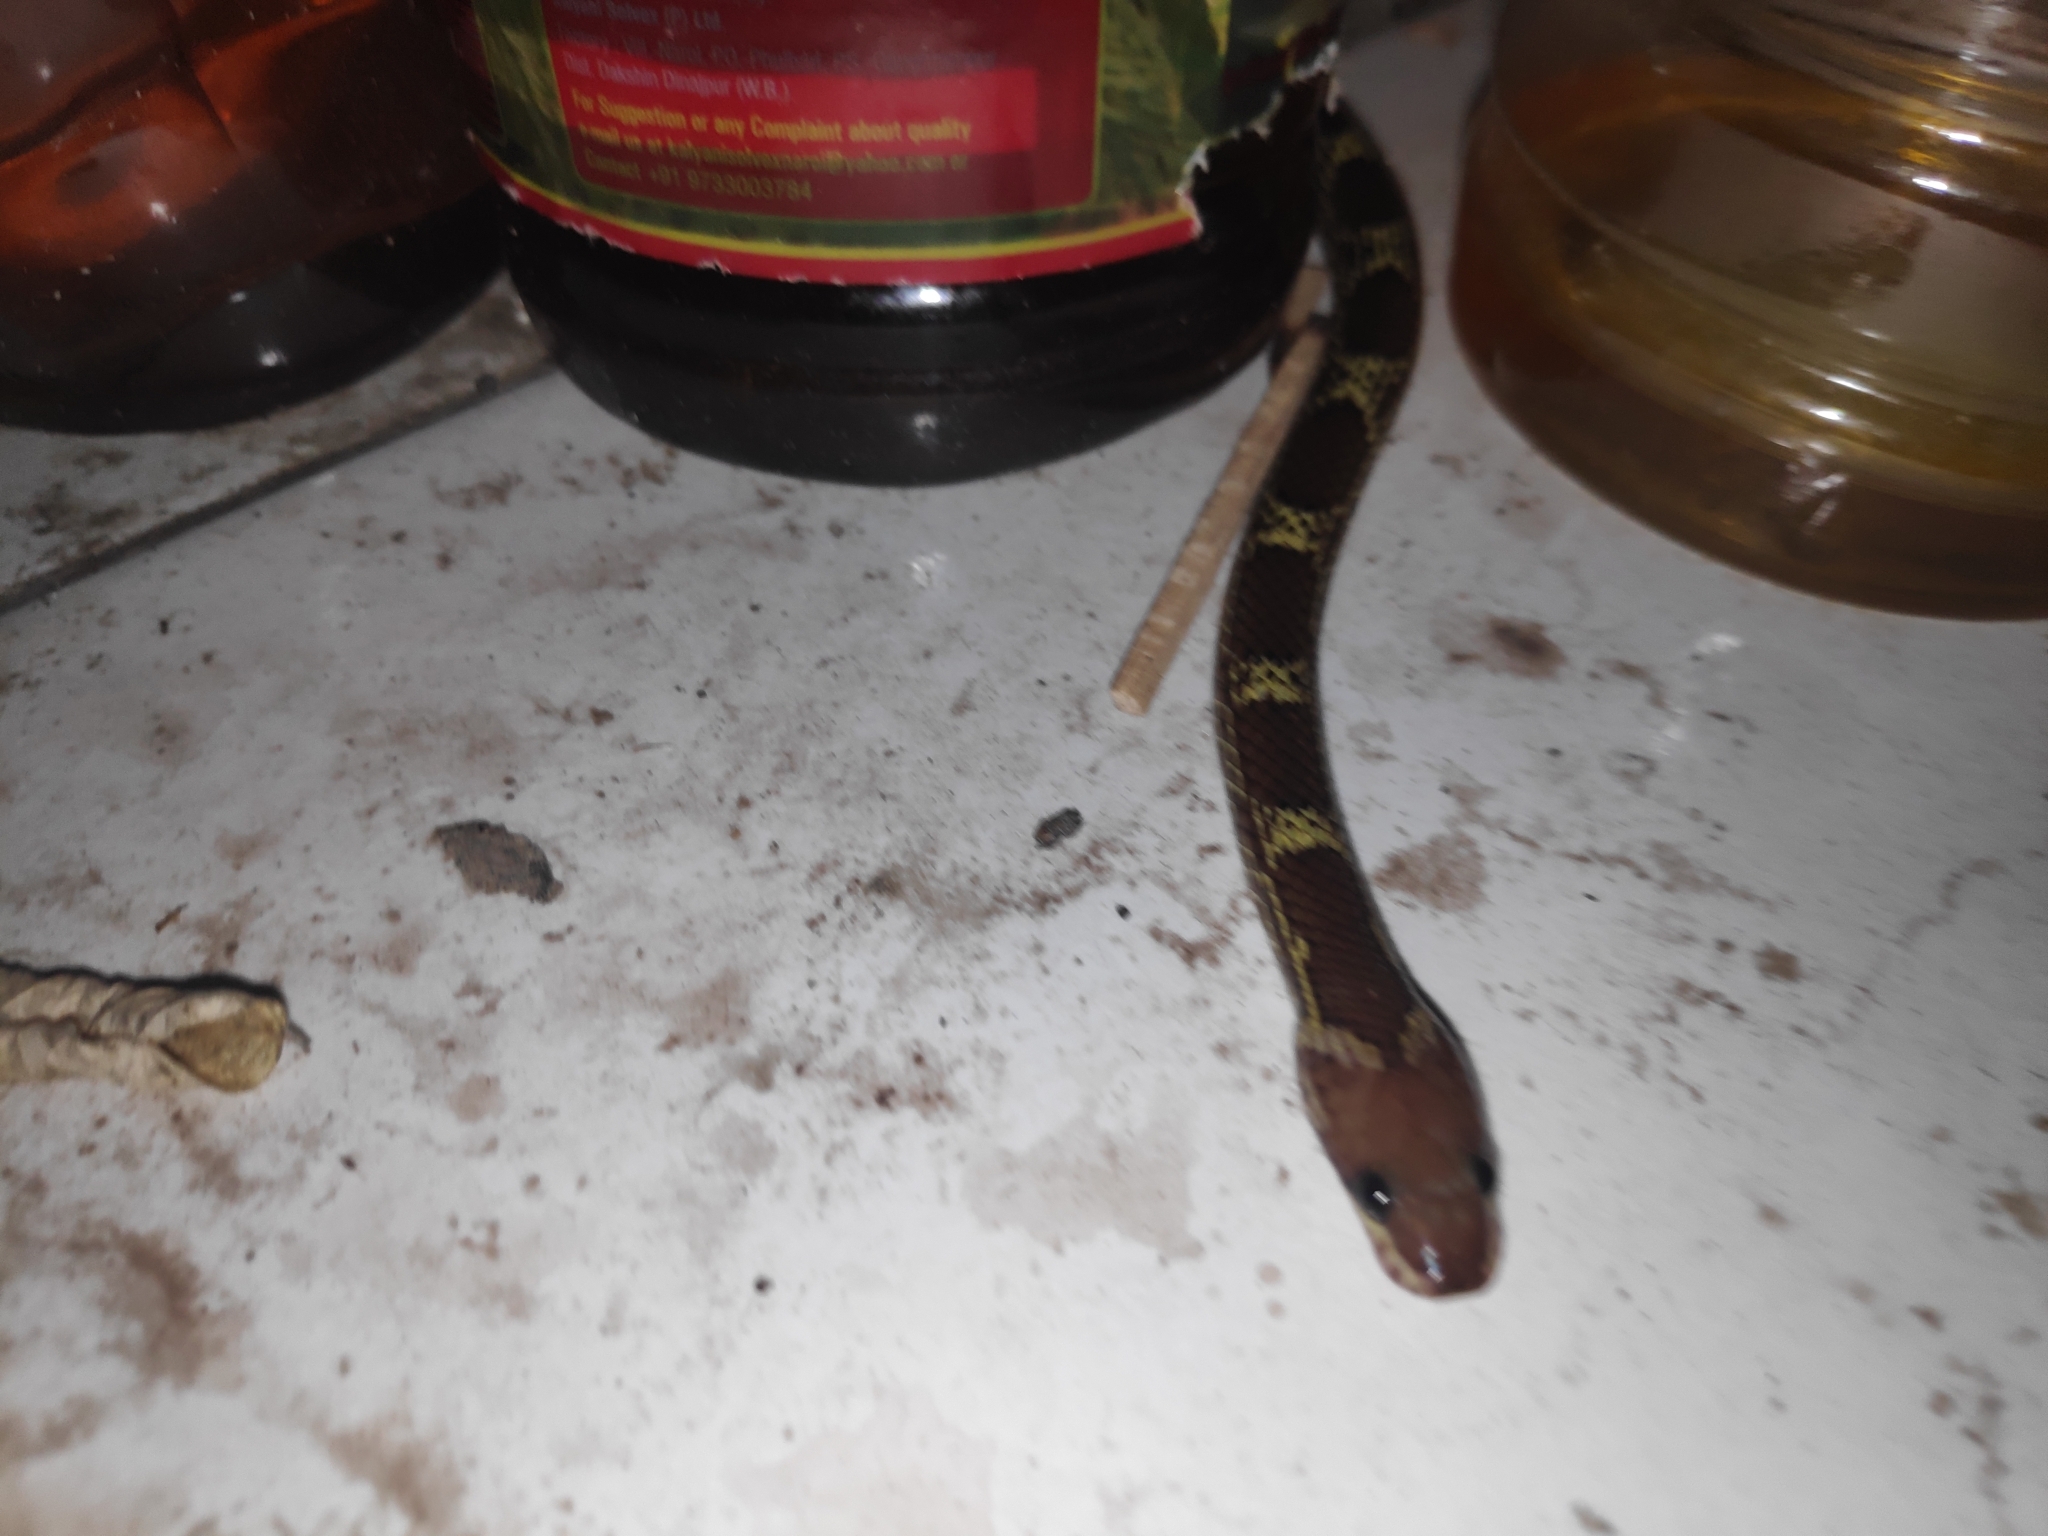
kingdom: Animalia
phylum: Chordata
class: Squamata
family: Colubridae
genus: Lycodon
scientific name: Lycodon aulicus
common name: Common wolf snake
